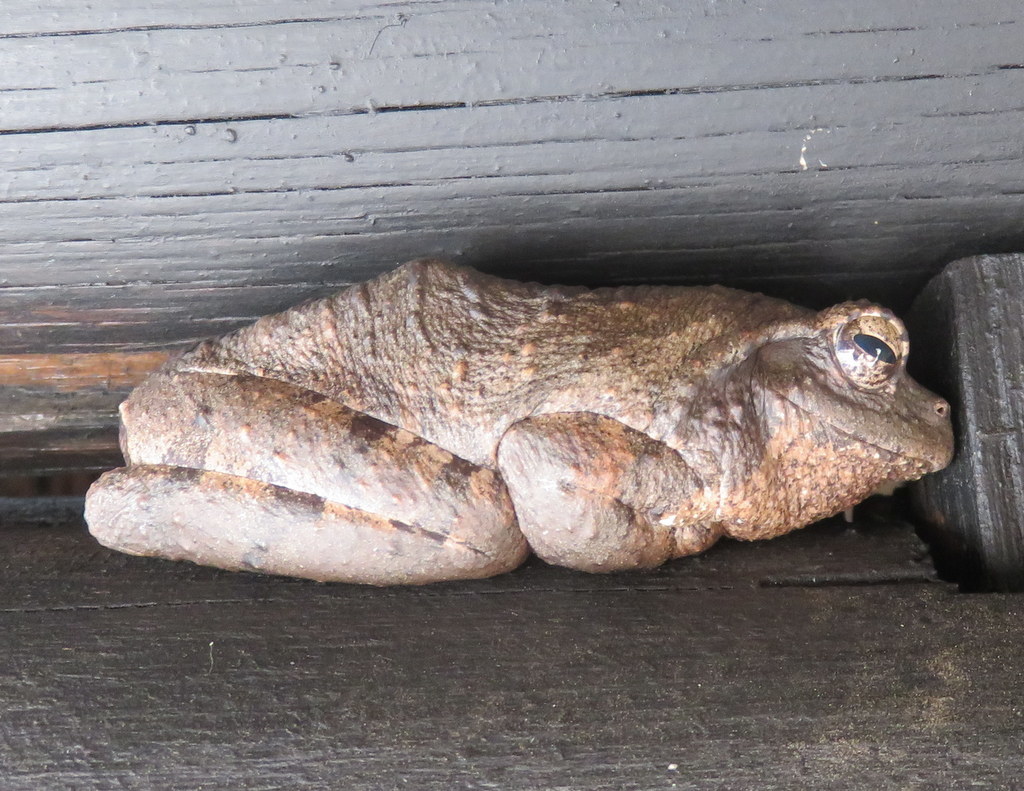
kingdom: Animalia
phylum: Chordata
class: Amphibia
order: Anura
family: Rhacophoridae
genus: Chiromantis
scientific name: Chiromantis xerampelina
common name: African gray treefrog
